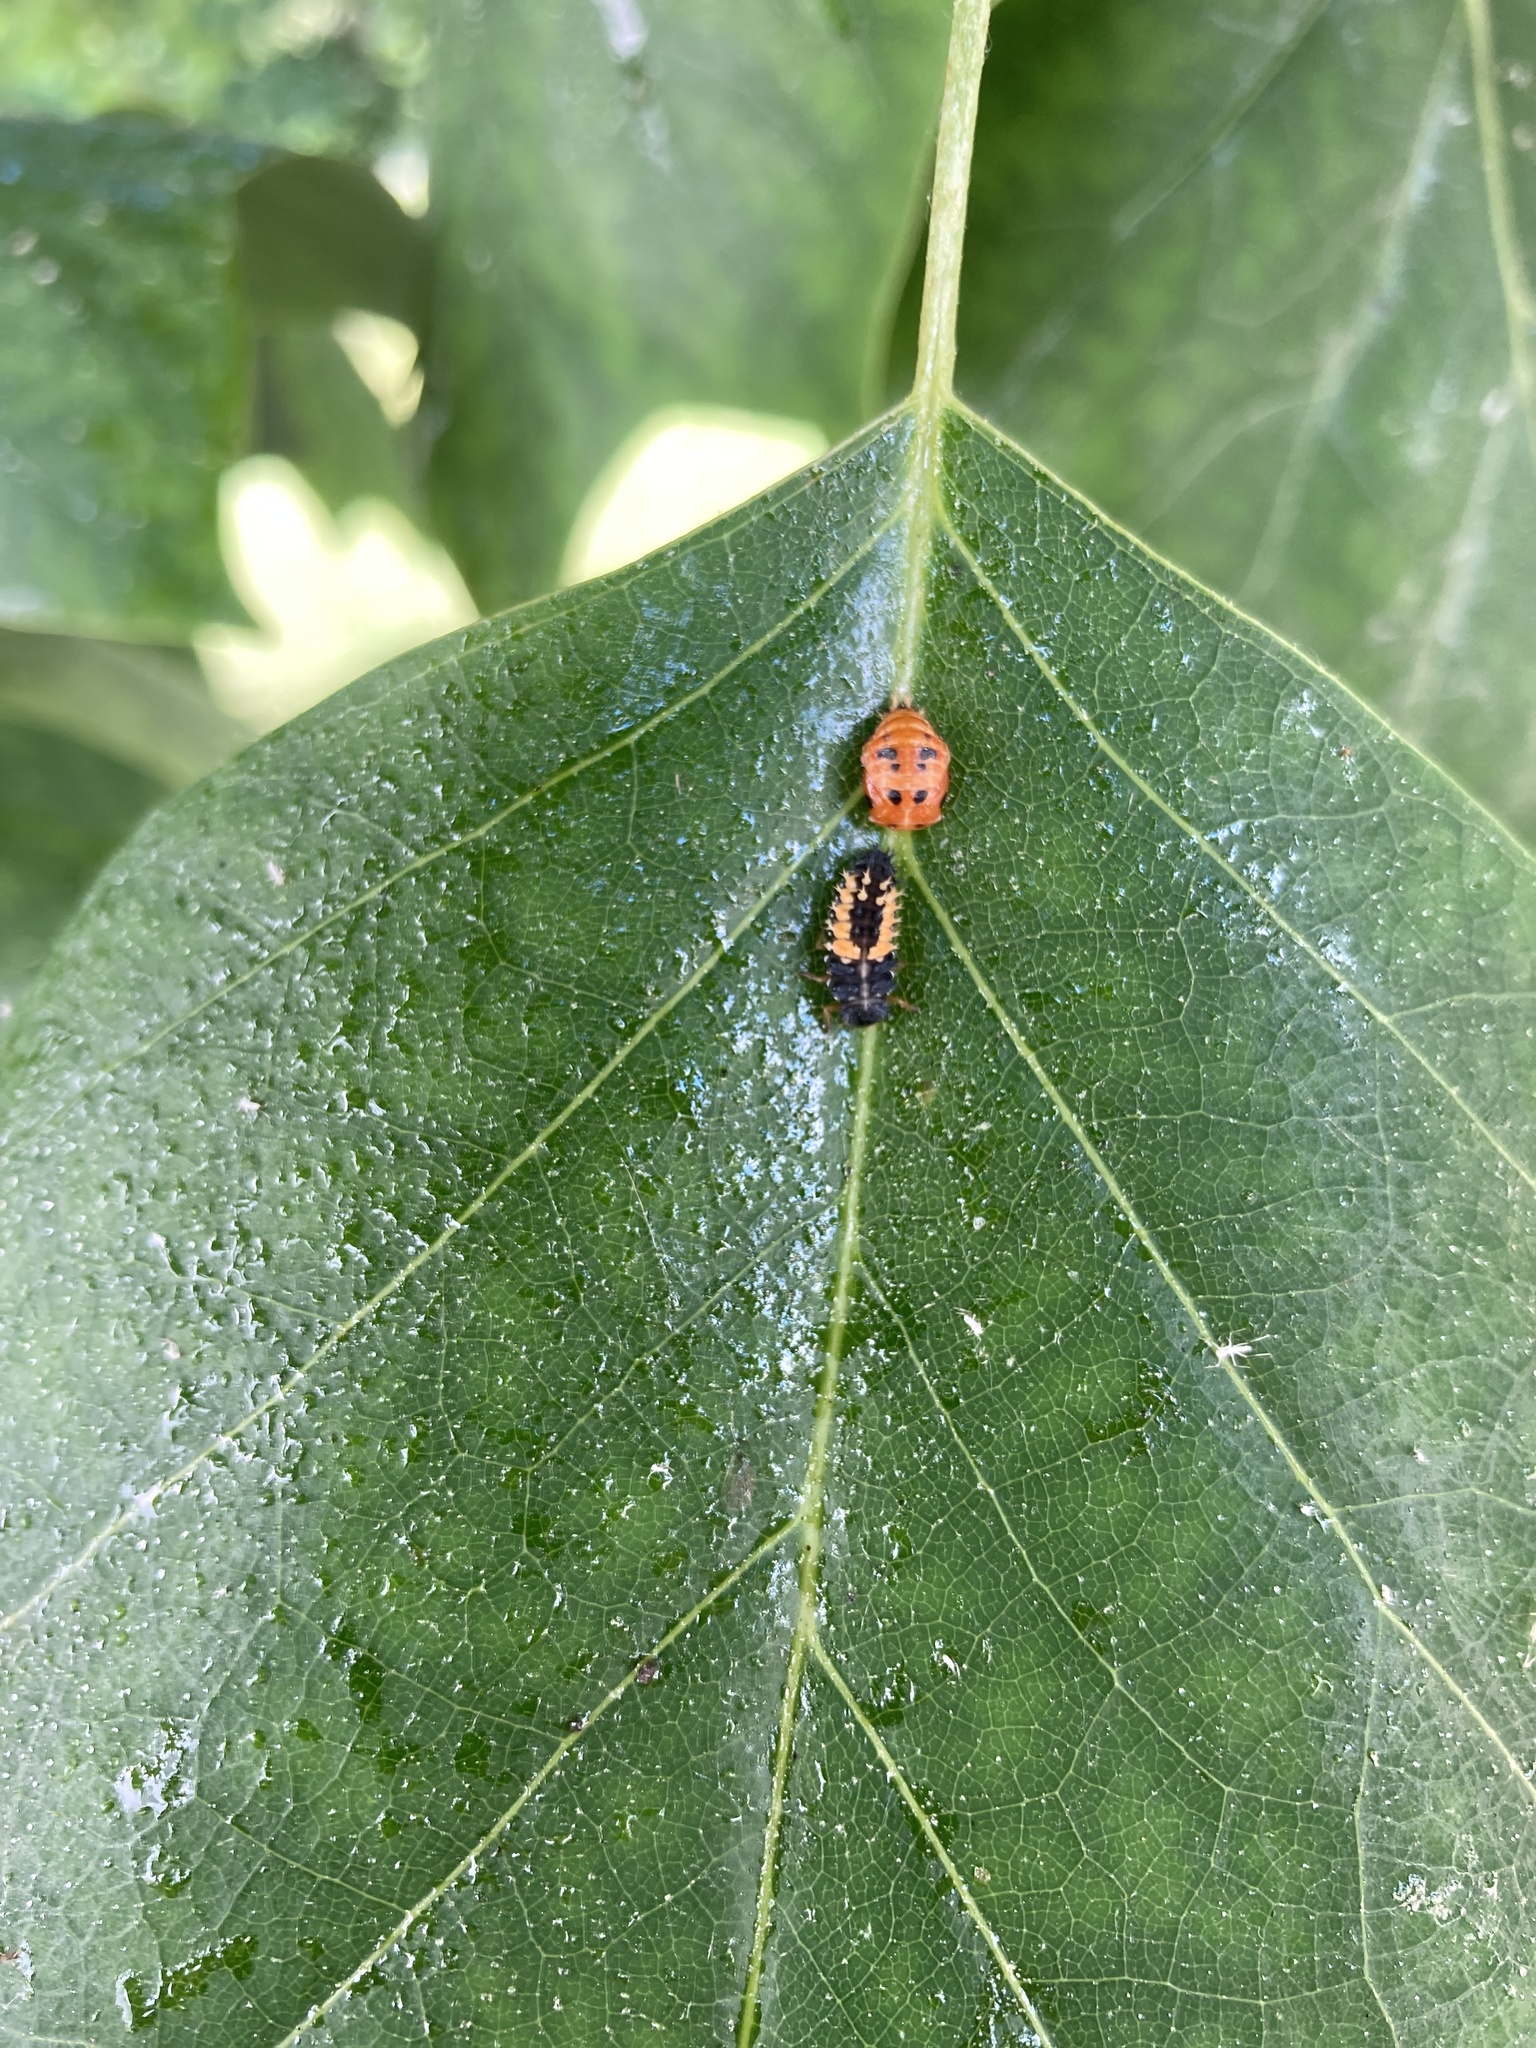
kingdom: Animalia
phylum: Arthropoda
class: Insecta
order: Coleoptera
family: Coccinellidae
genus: Harmonia
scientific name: Harmonia axyridis
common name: Harlequin ladybird
